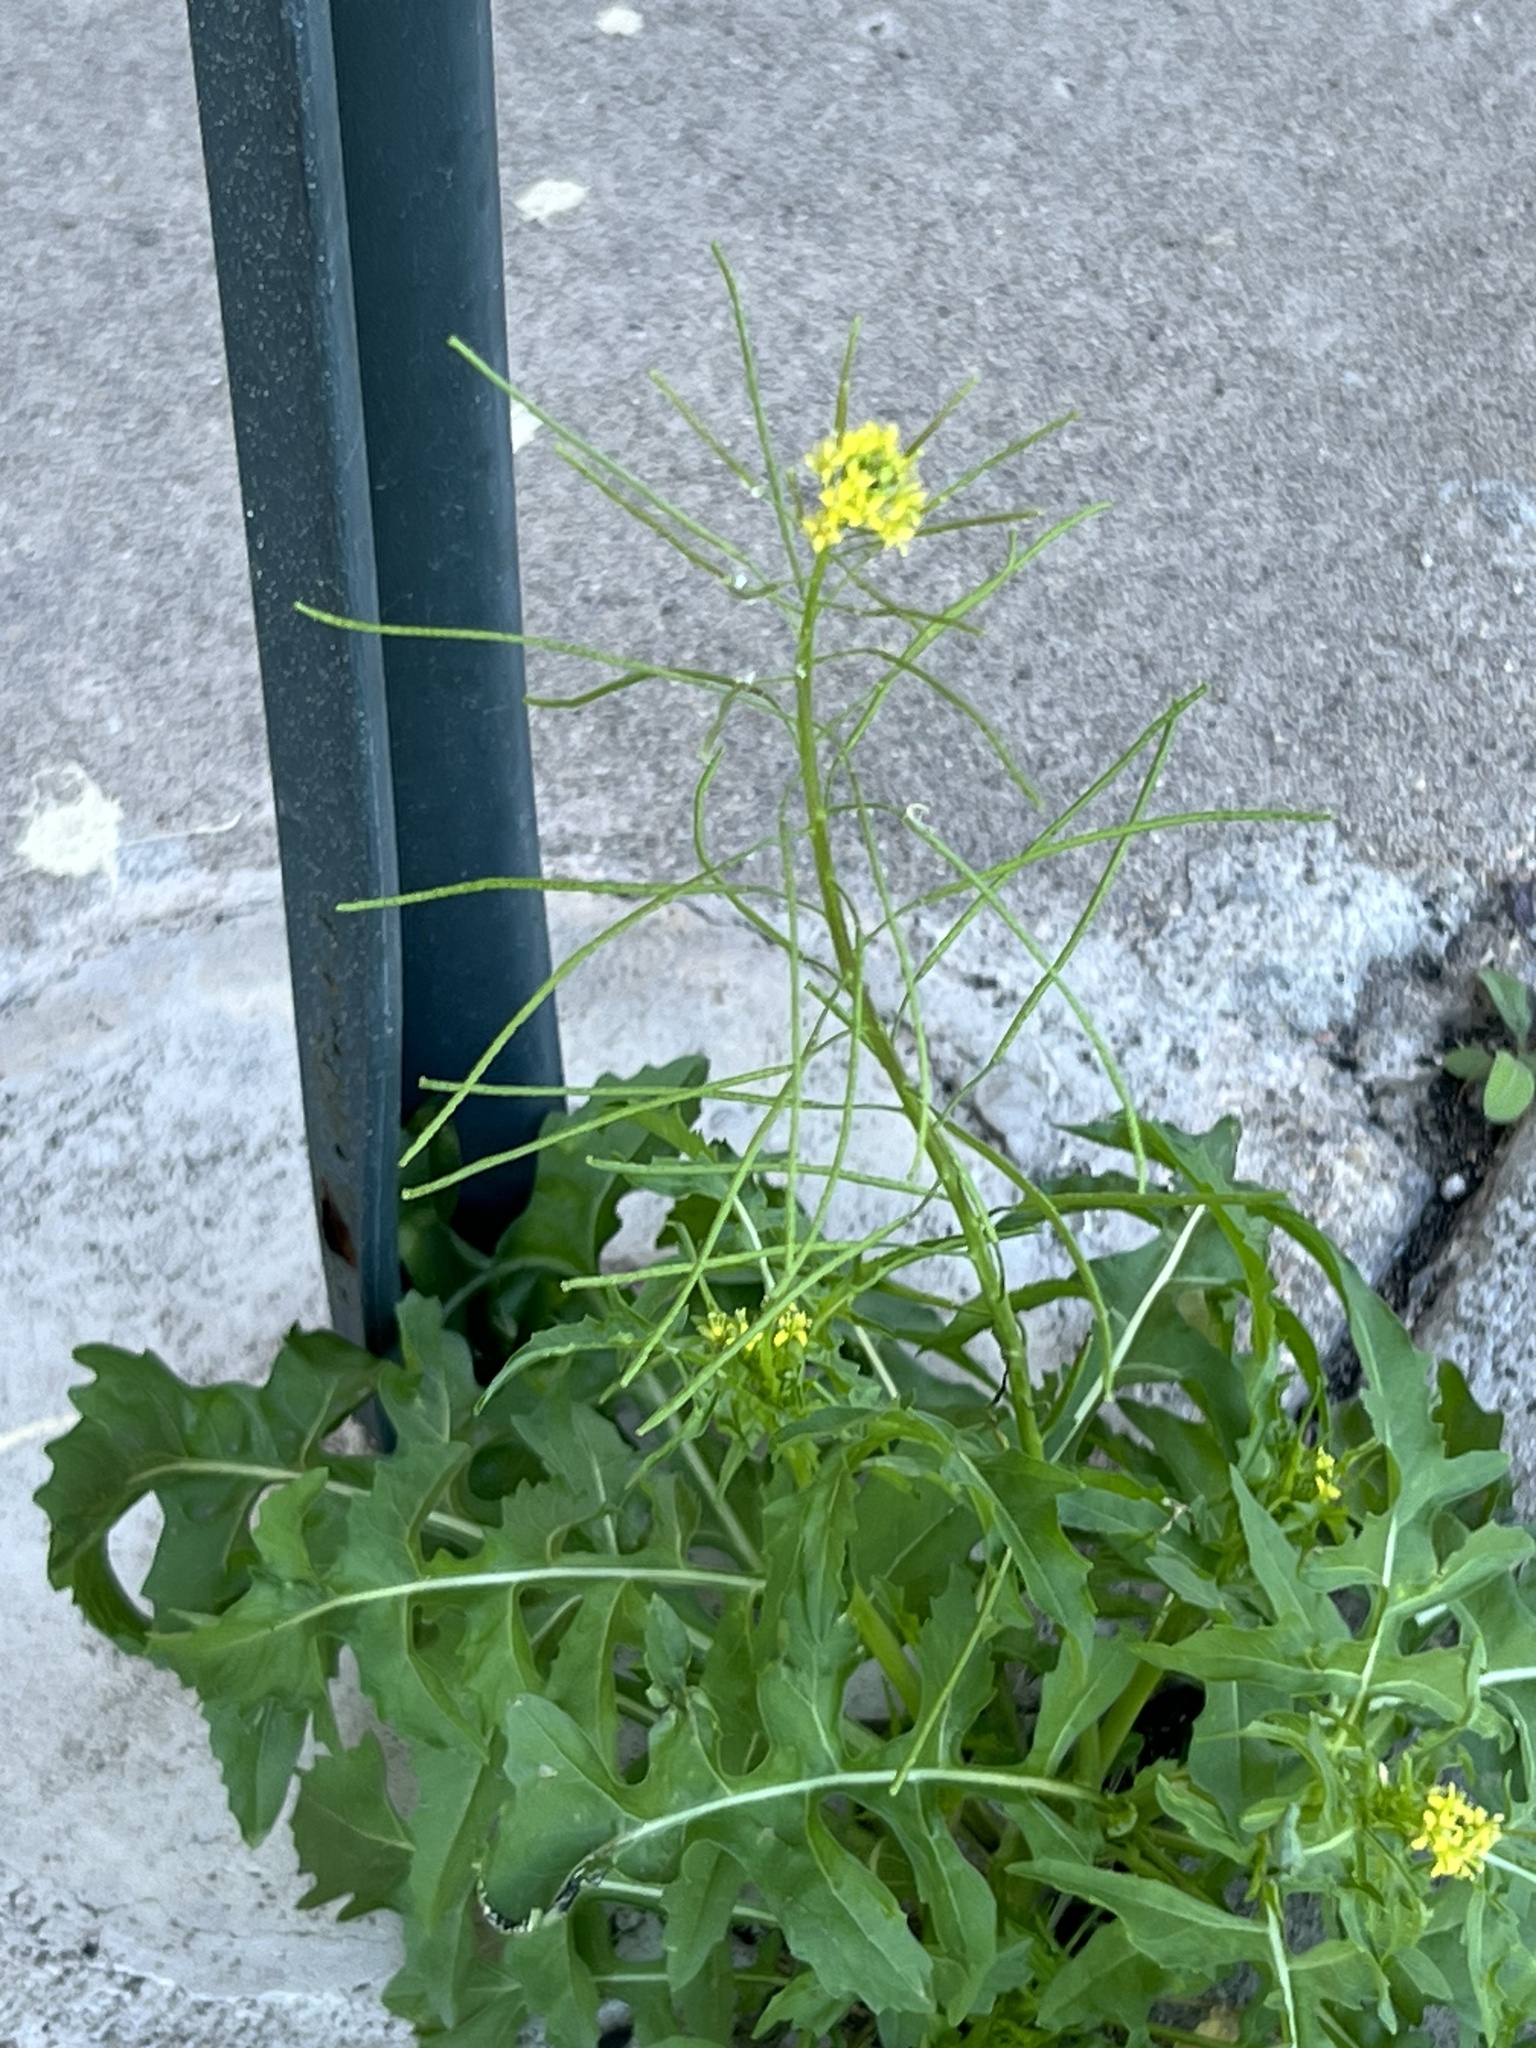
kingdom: Plantae
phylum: Tracheophyta
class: Magnoliopsida
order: Brassicales
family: Brassicaceae
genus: Sisymbrium
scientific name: Sisymbrium irio
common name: London rocket
